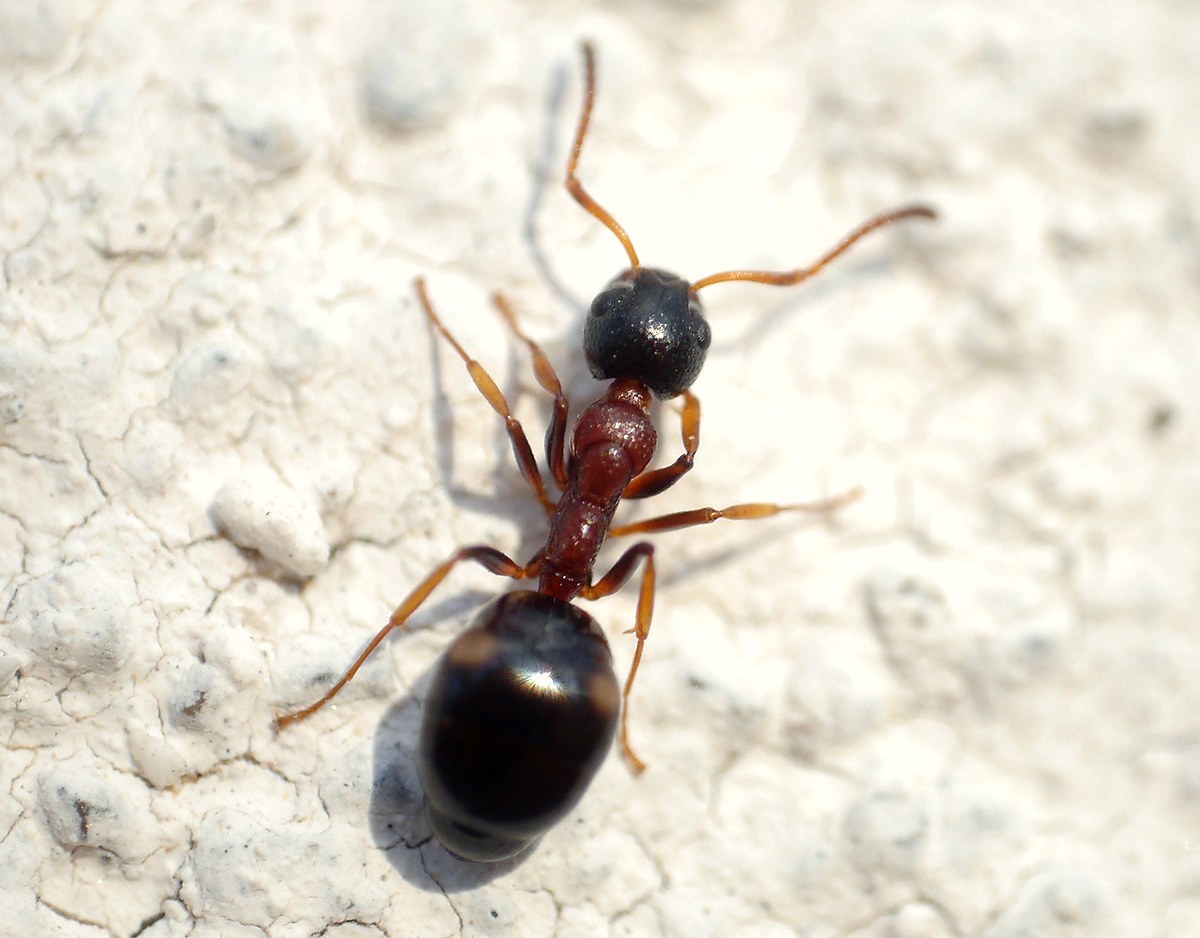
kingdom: Animalia
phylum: Arthropoda
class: Insecta
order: Hymenoptera
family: Formicidae
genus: Dolichoderus
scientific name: Dolichoderus quadripunctatus
